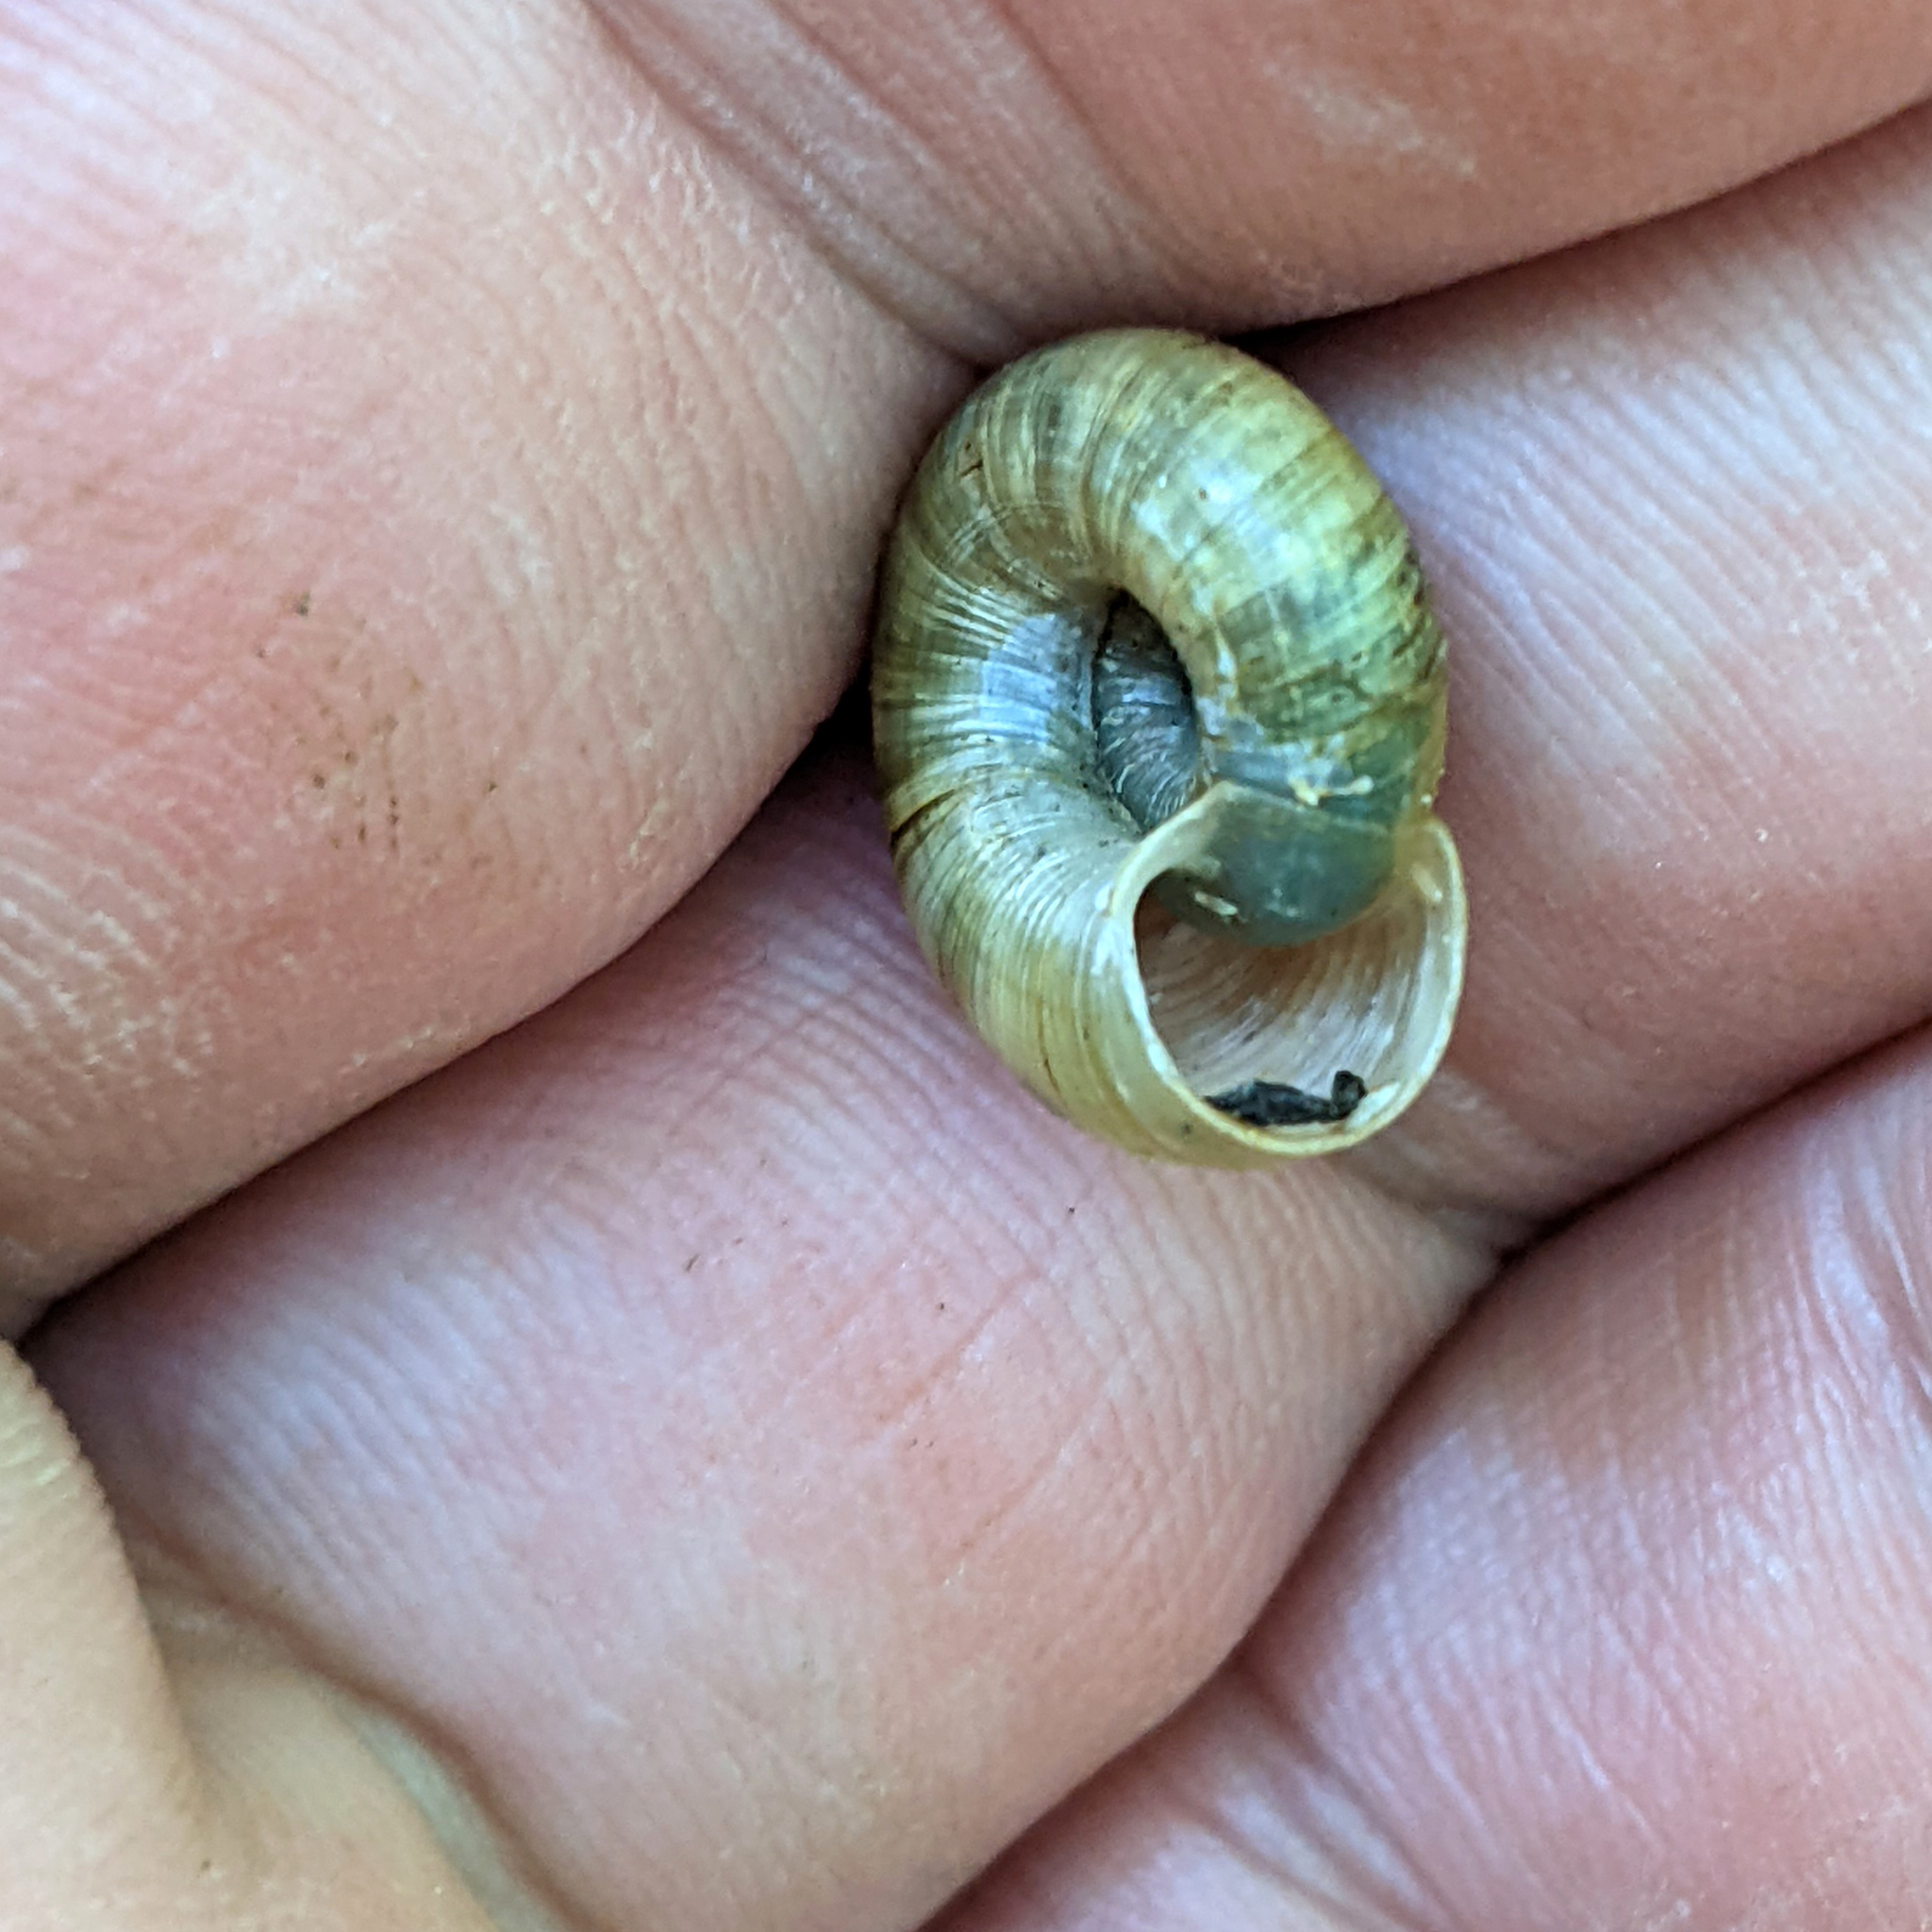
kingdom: Animalia
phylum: Mollusca
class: Gastropoda
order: Stylommatophora
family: Haplotrematidae
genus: Haplotrema
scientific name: Haplotrema concavum
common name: Gray-foot lancetooth
